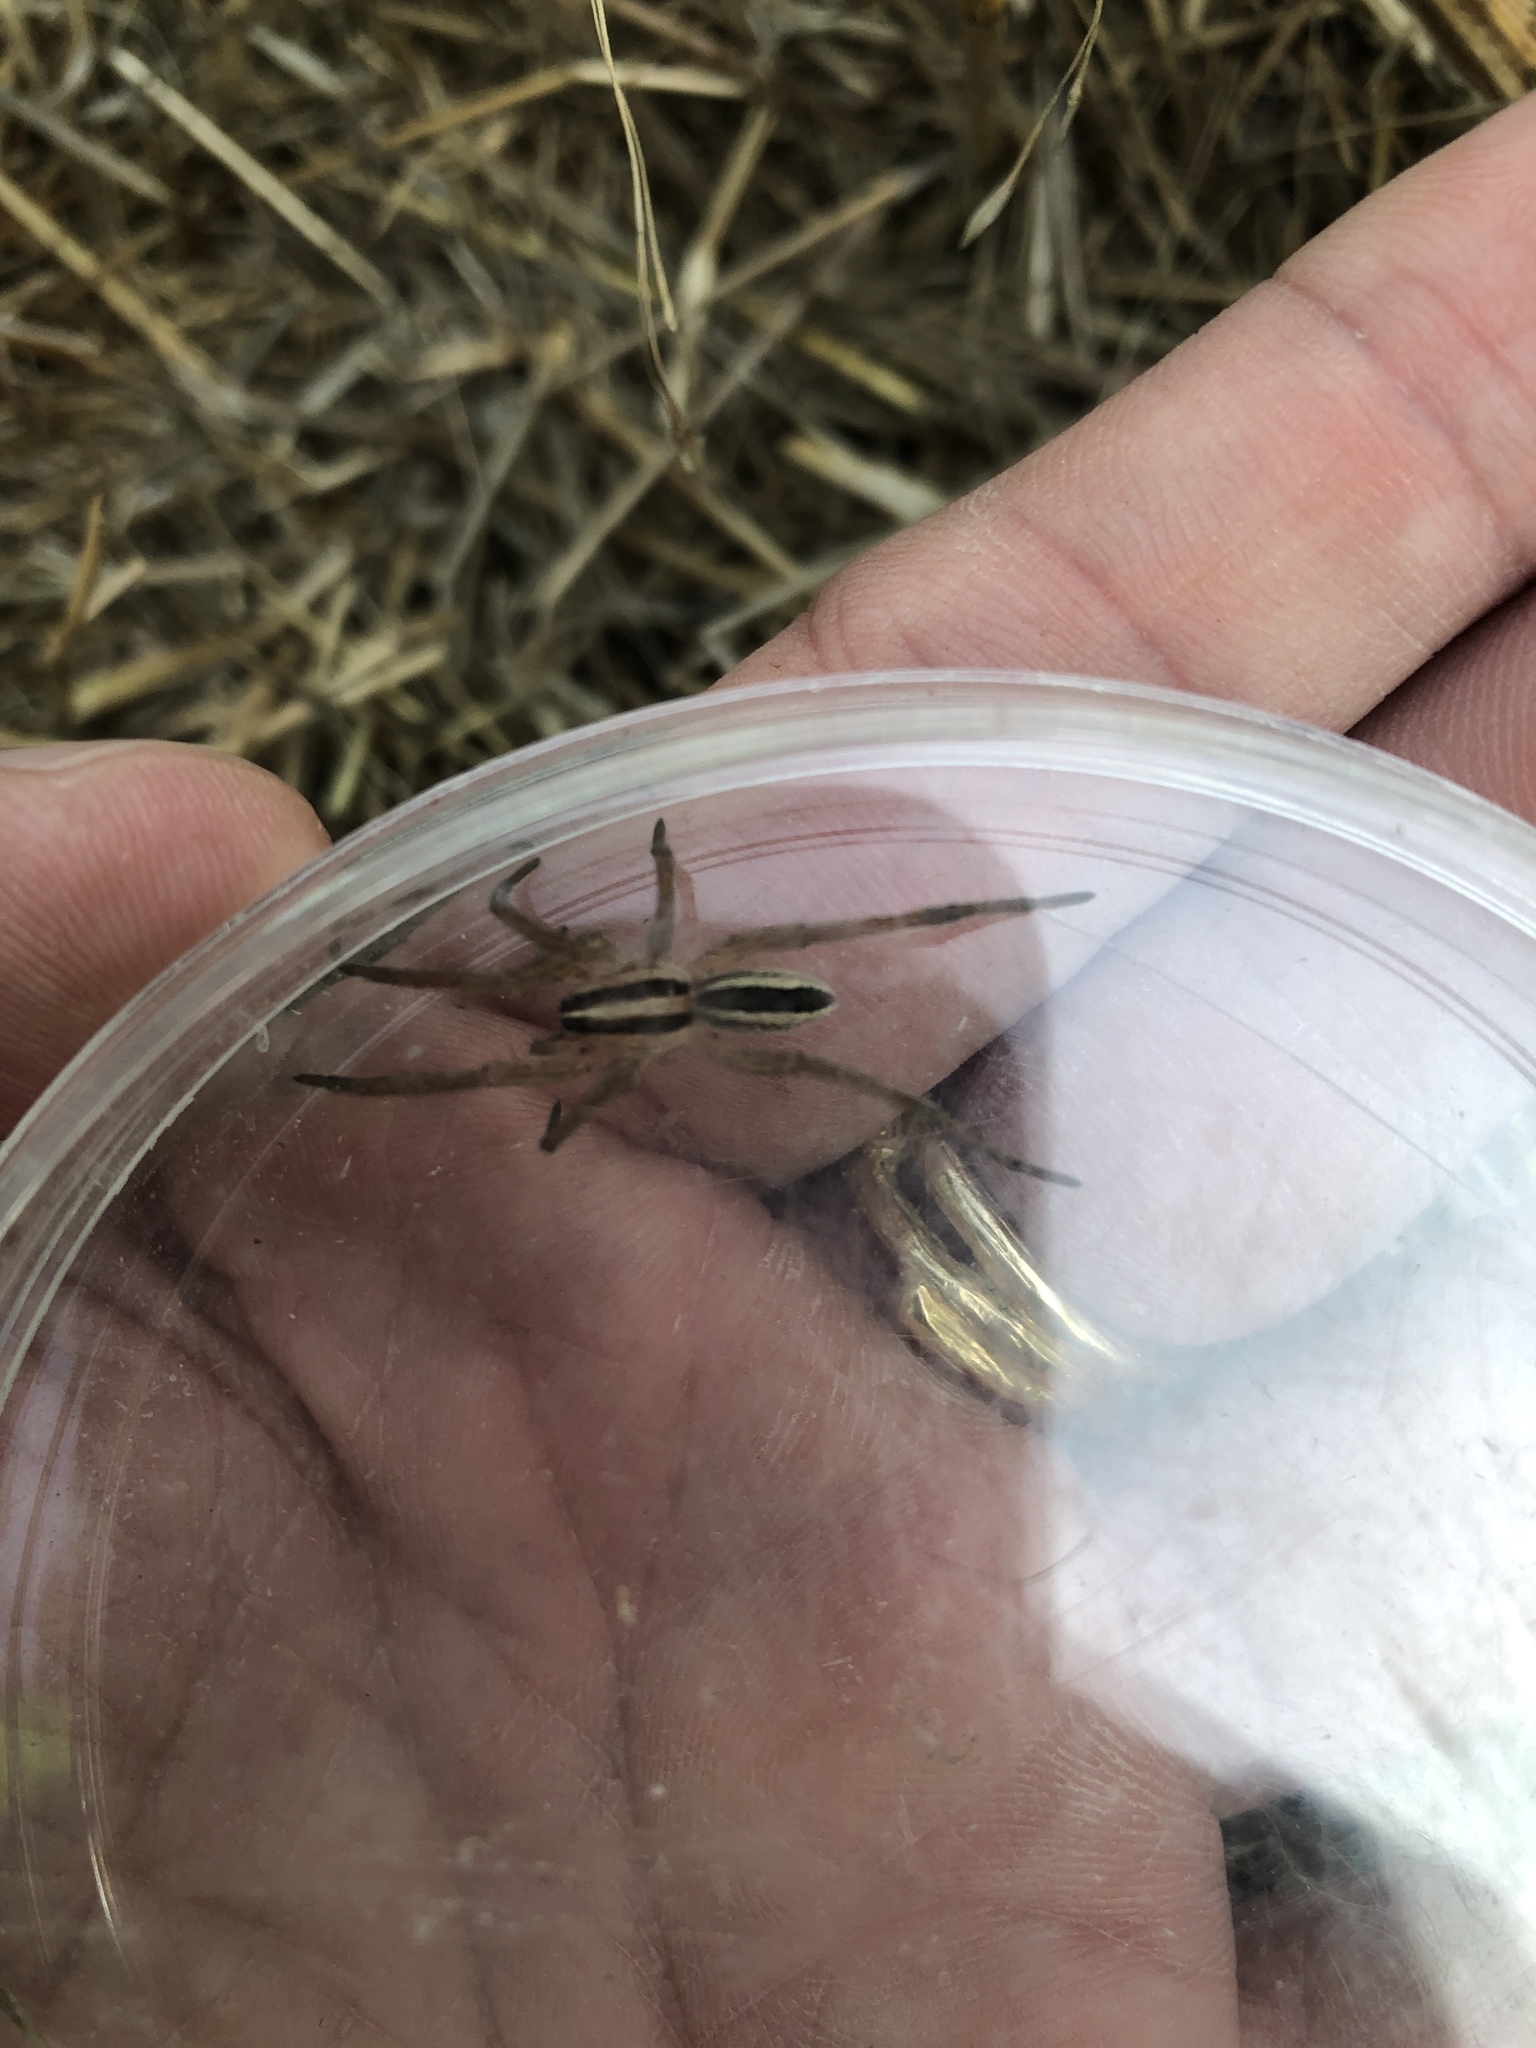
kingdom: Animalia
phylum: Arthropoda
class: Arachnida
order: Araneae
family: Lycosidae
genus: Rabidosa
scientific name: Rabidosa rabida
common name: Rabid wolf spider
